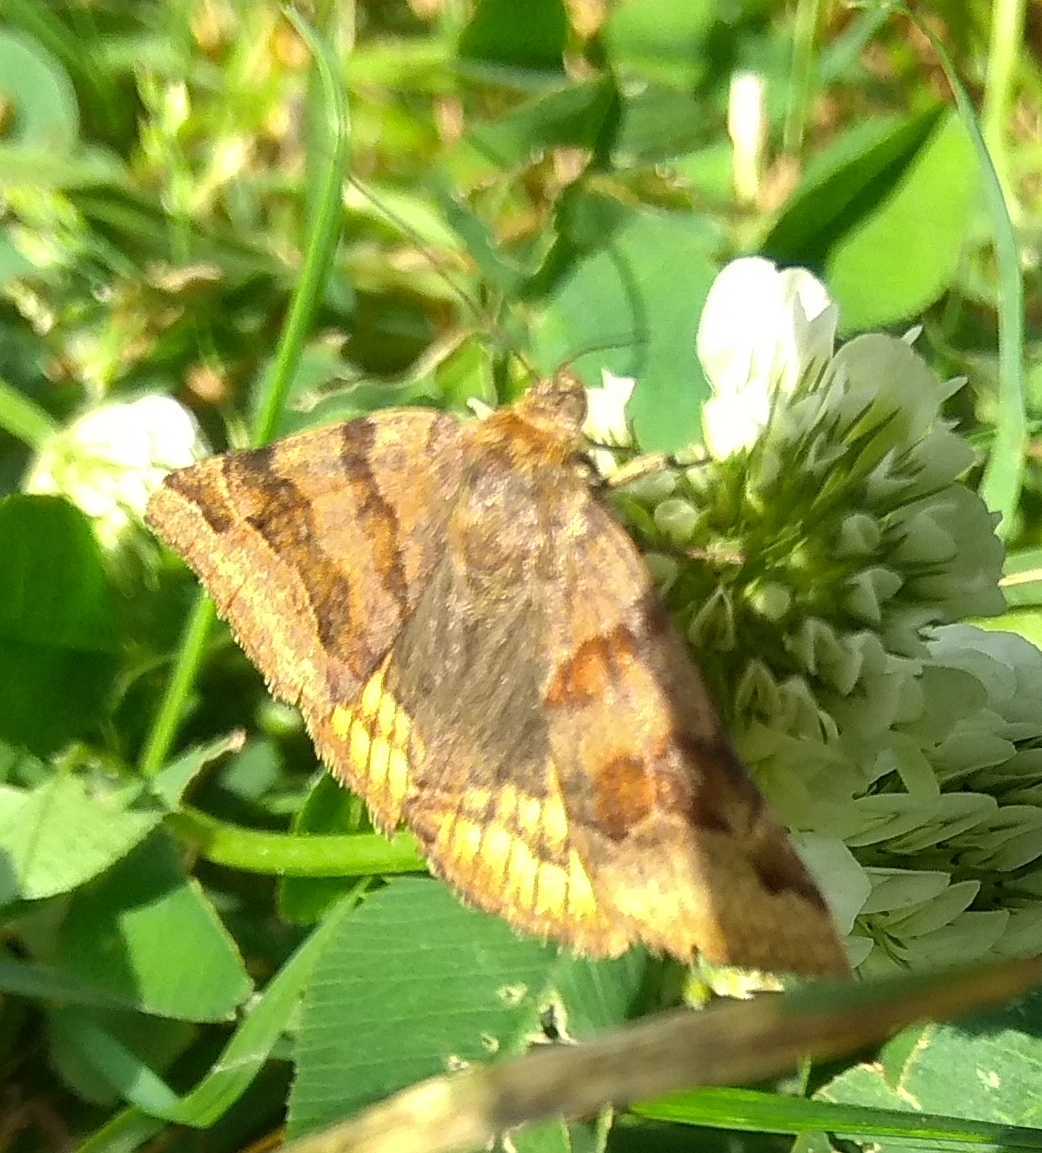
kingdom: Animalia
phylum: Arthropoda
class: Insecta
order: Lepidoptera
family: Erebidae
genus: Euclidia
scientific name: Euclidia glyphica
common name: Burnet companion
